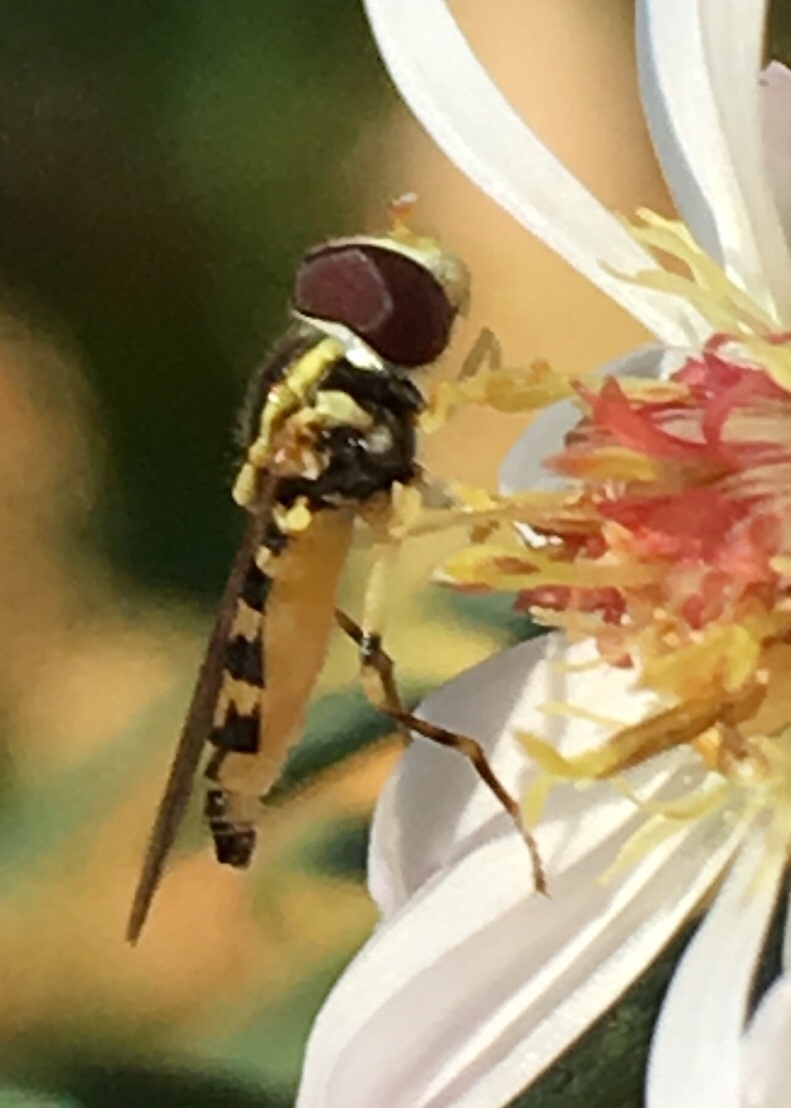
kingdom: Animalia
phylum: Arthropoda
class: Insecta
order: Diptera
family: Syrphidae
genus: Toxomerus
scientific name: Toxomerus geminatus
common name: Eastern calligrapher
